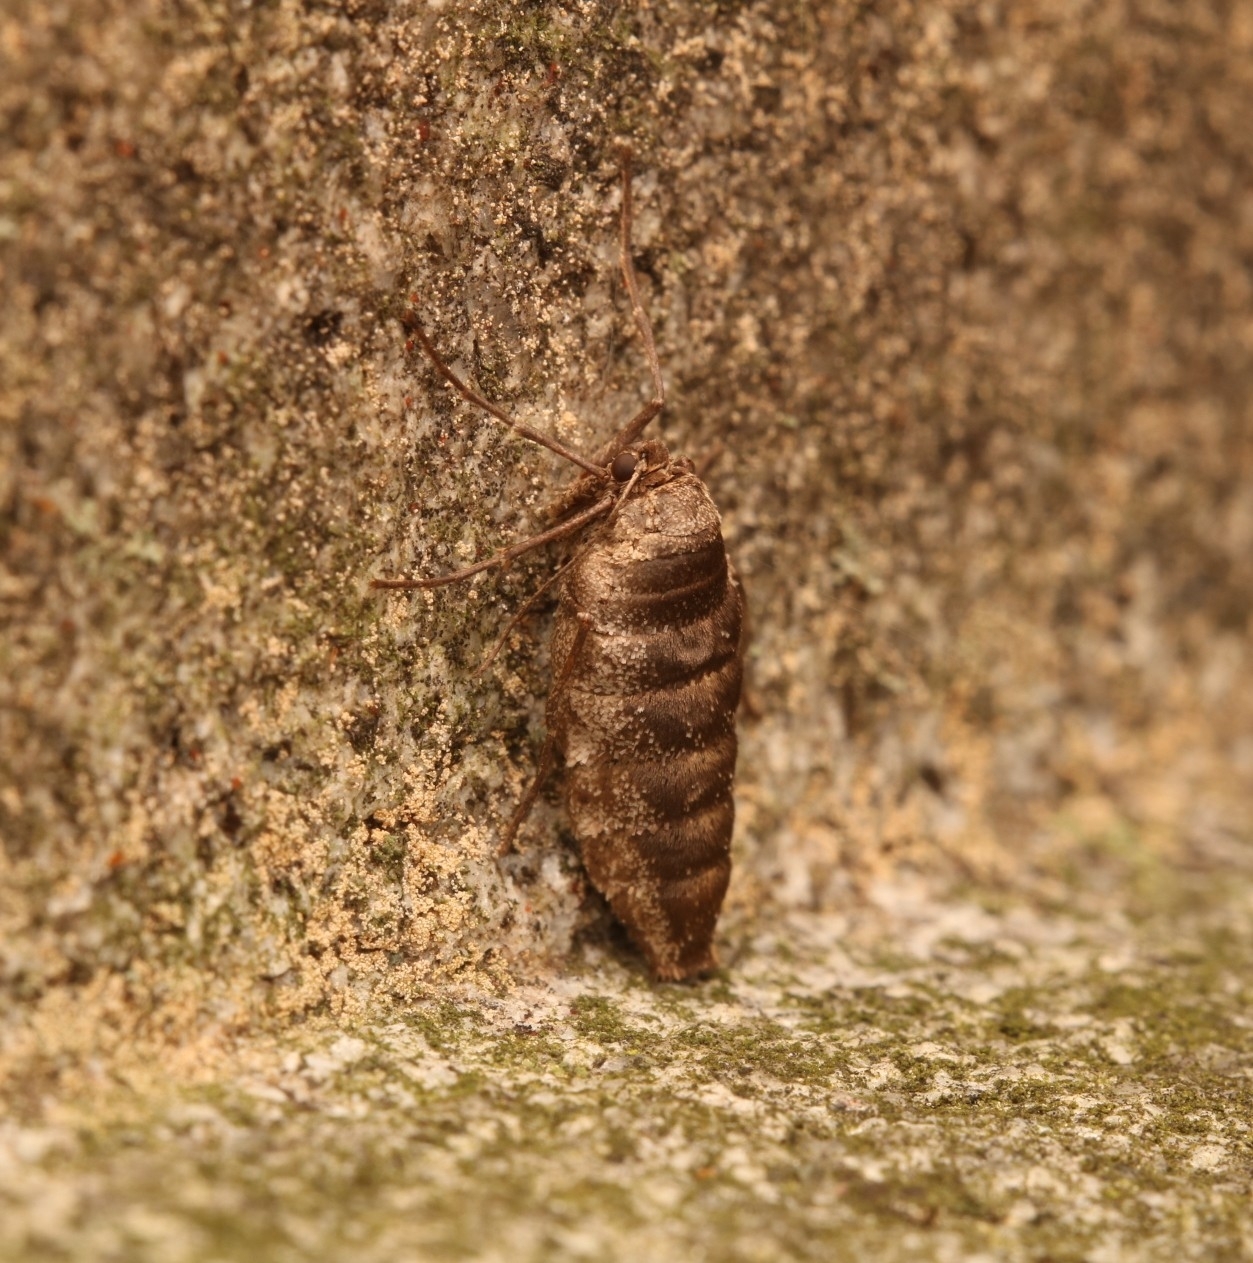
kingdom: Animalia
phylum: Arthropoda
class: Insecta
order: Lepidoptera
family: Geometridae
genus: Alsophila
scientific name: Alsophila pometaria
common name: Fall cankerworm
